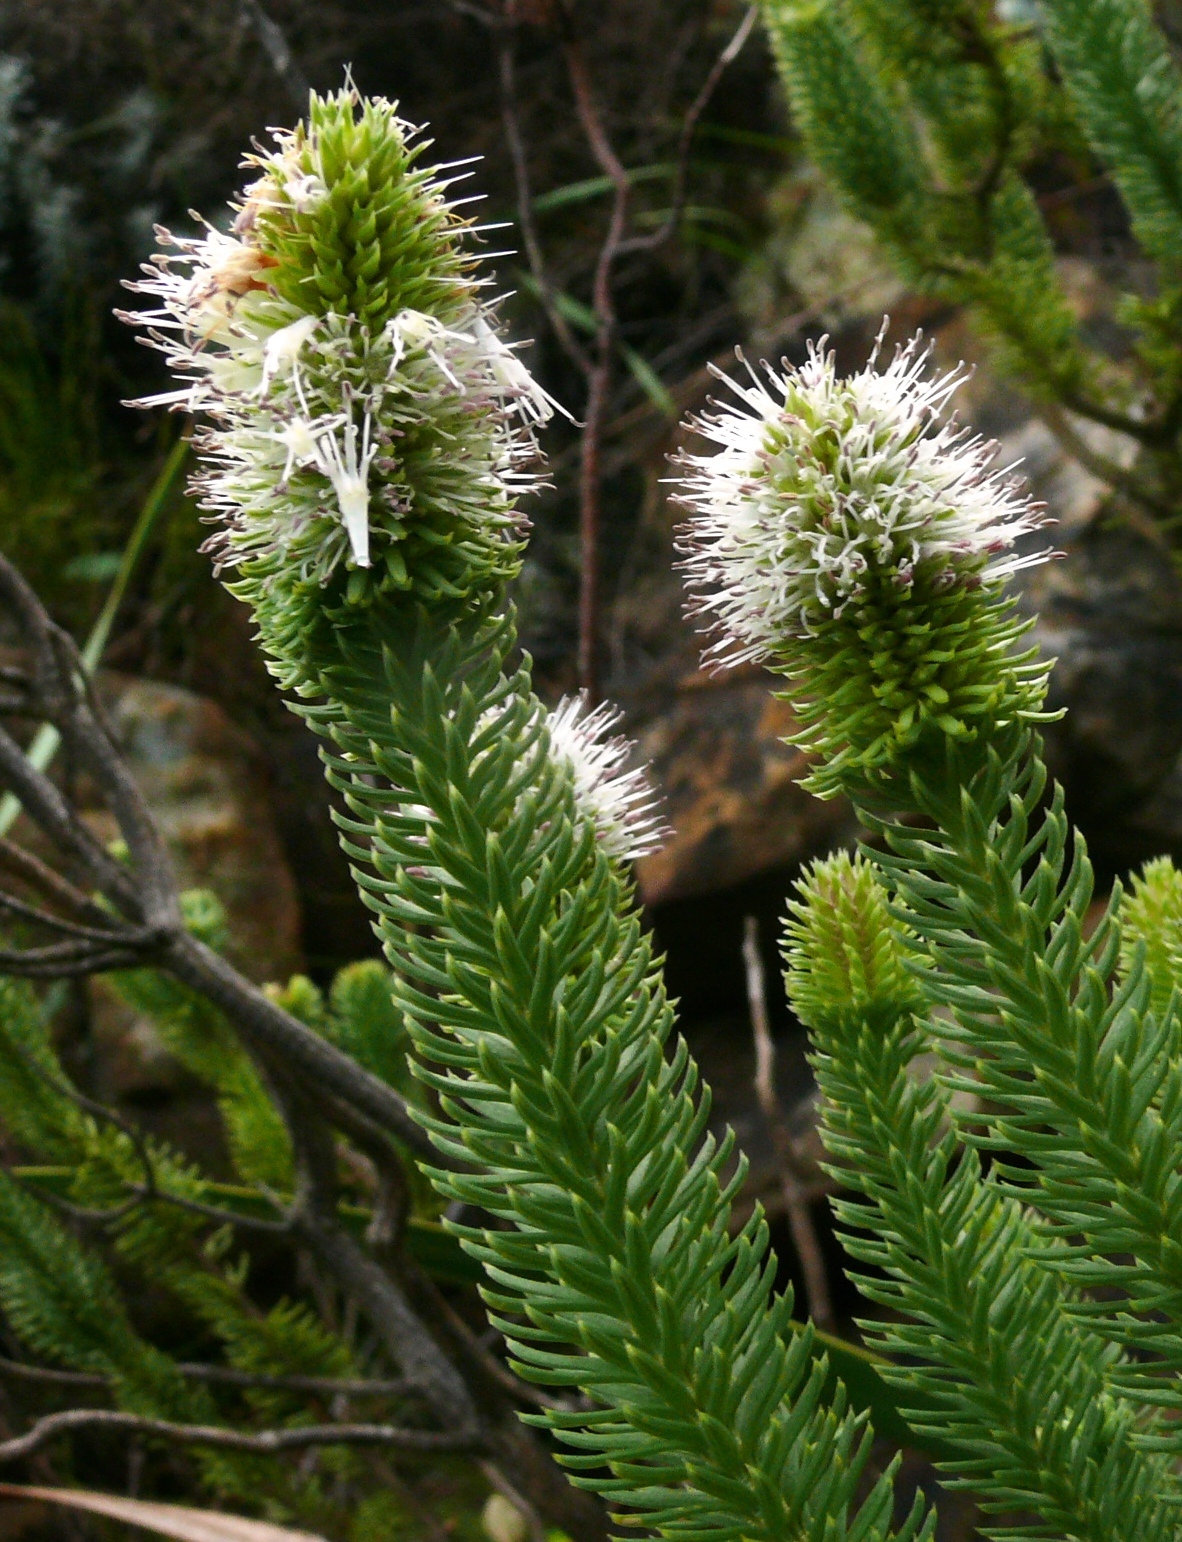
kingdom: Plantae
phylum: Tracheophyta
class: Magnoliopsida
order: Lamiales
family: Stilbaceae
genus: Stilbe
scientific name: Stilbe vestita
